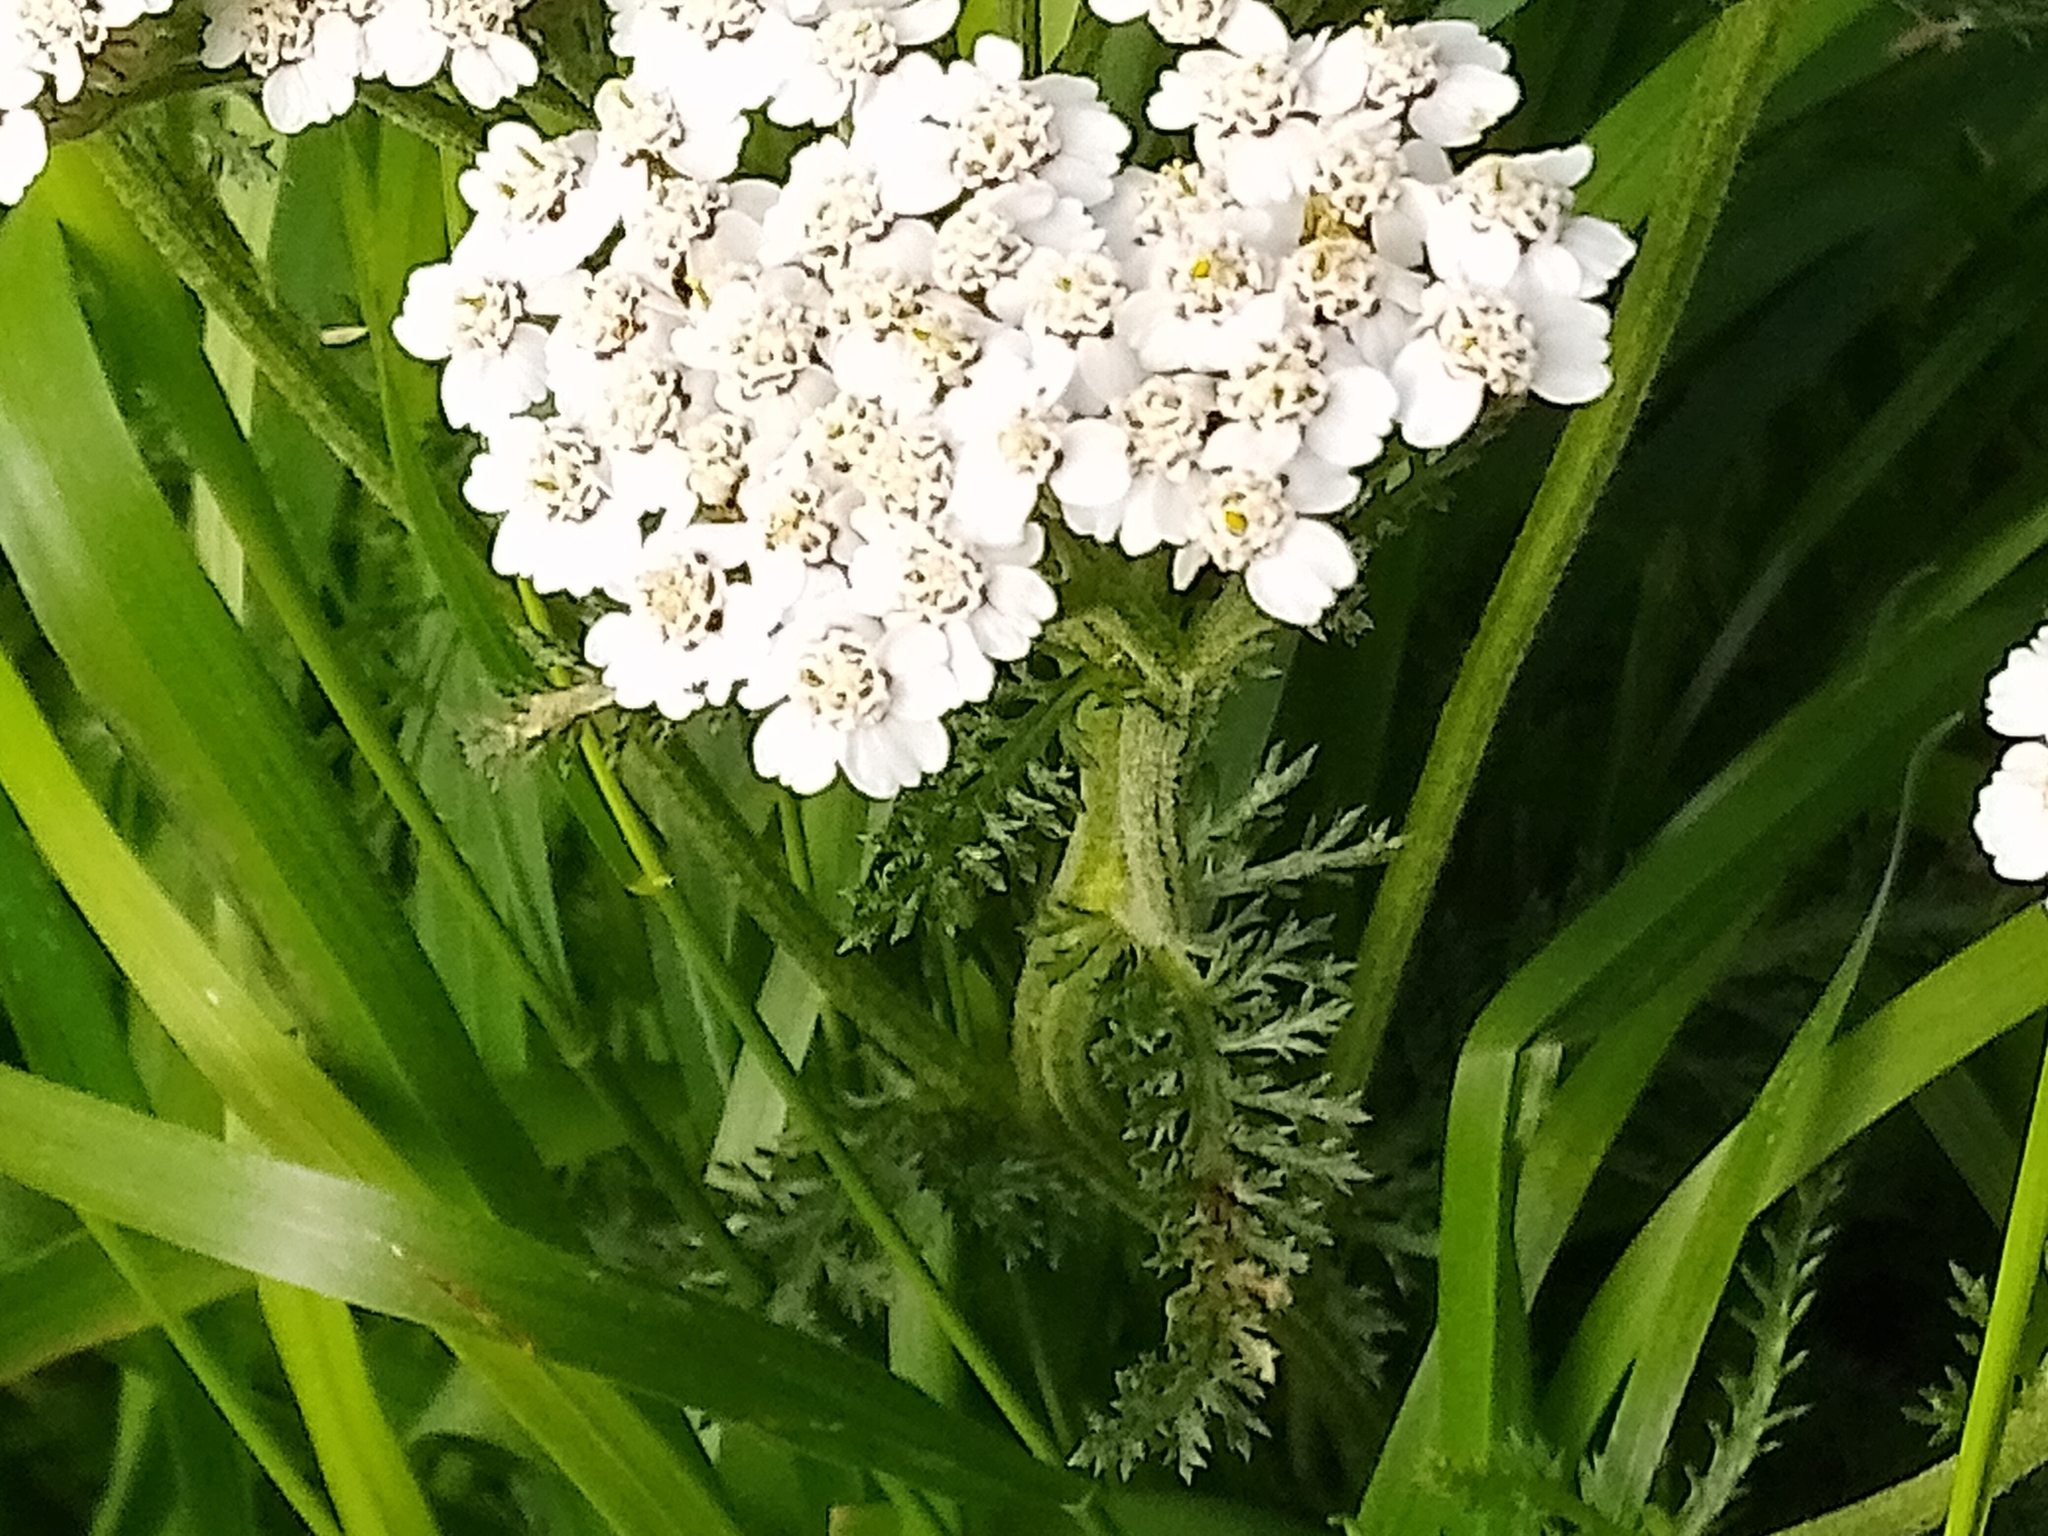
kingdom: Plantae
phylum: Tracheophyta
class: Magnoliopsida
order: Asterales
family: Asteraceae
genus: Achillea
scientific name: Achillea millefolium
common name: Yarrow
